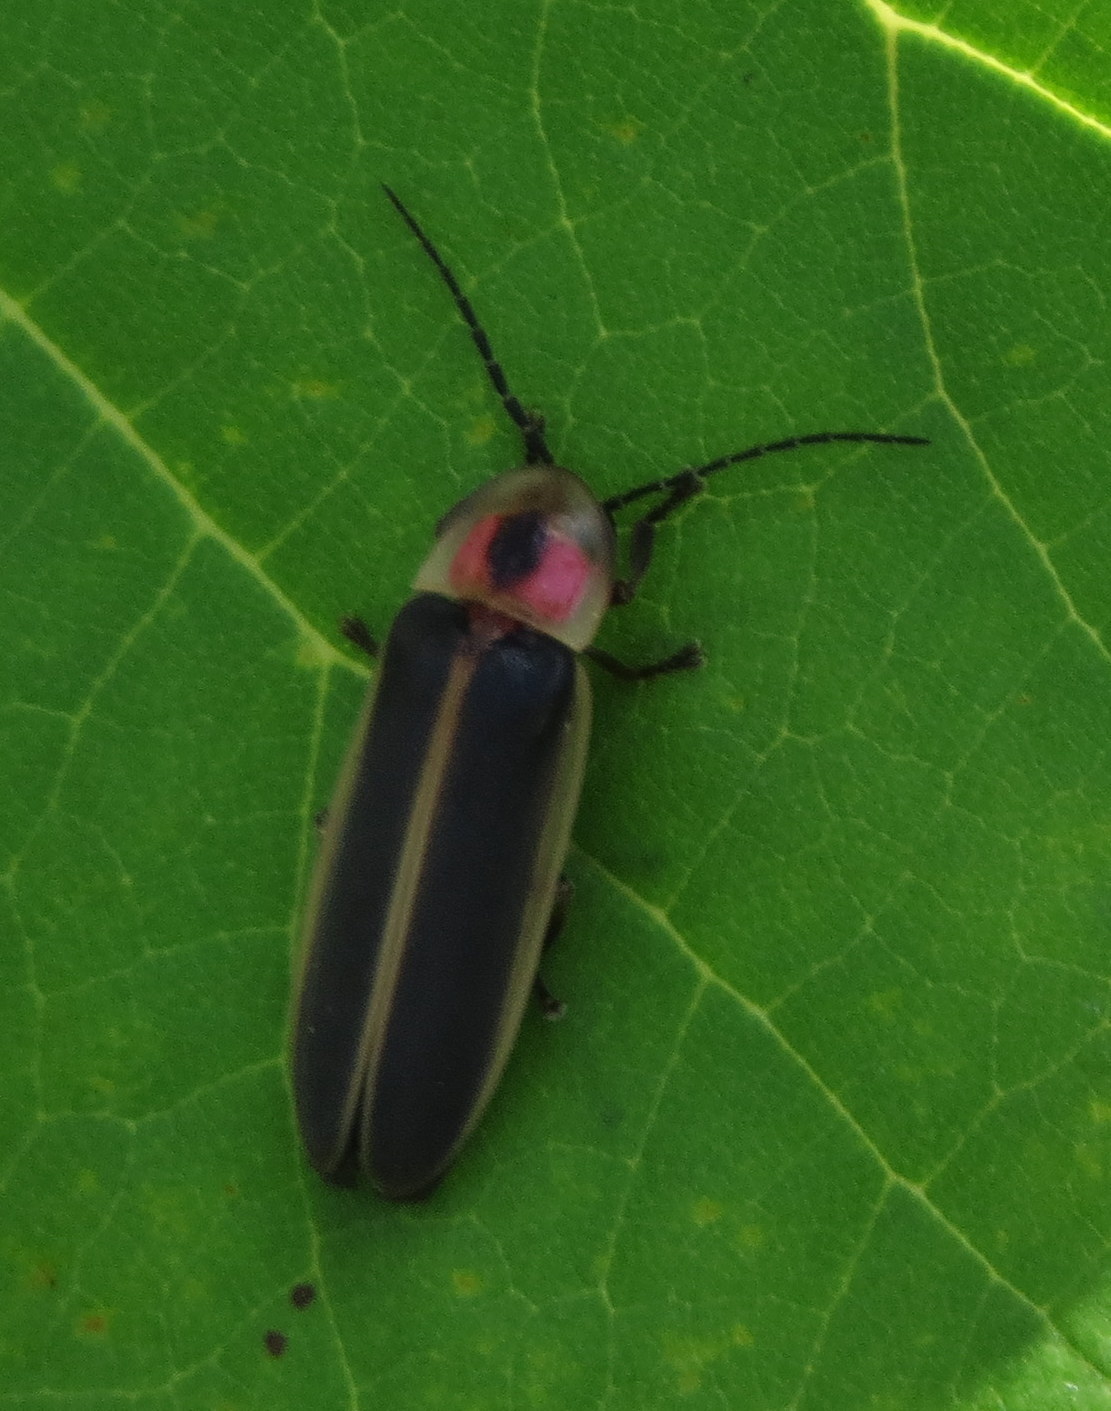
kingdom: Animalia
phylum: Arthropoda
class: Insecta
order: Coleoptera
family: Lampyridae
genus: Photinus
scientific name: Photinus pyralis
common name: Big dipper firefly
